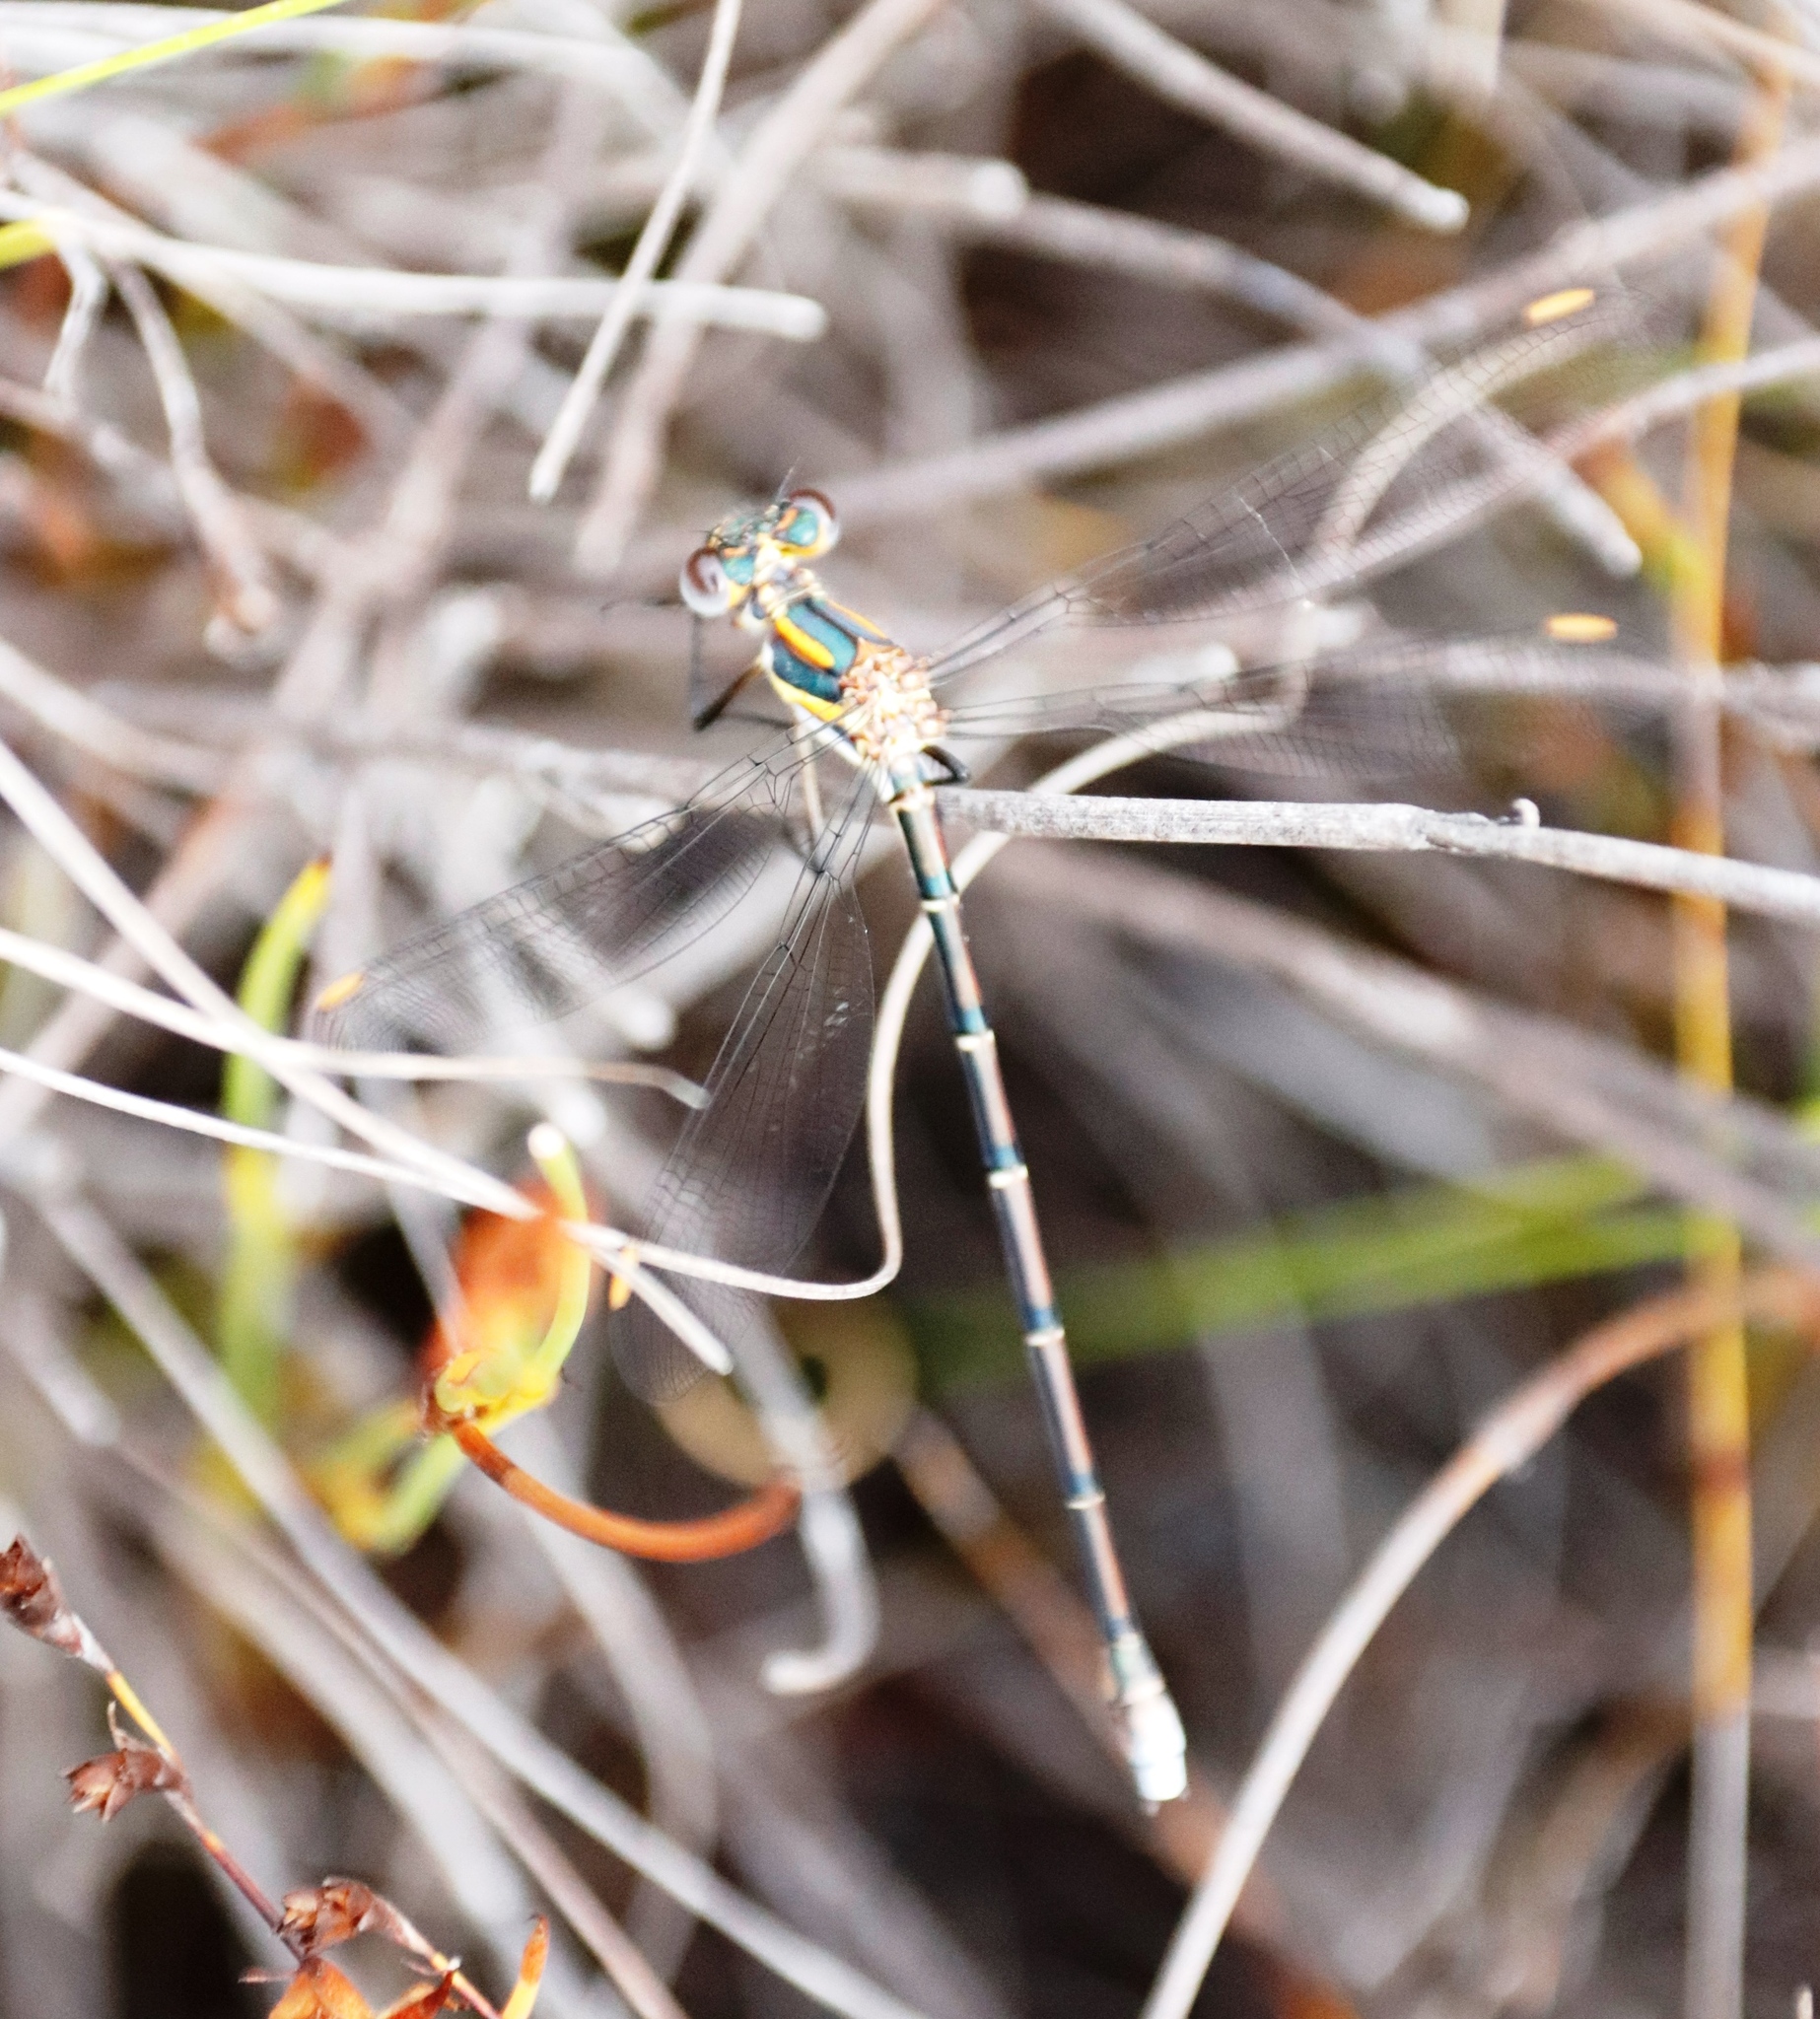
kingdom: Animalia
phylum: Arthropoda
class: Insecta
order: Odonata
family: Synlestidae
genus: Chlorolestes
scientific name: Chlorolestes conspicuus
